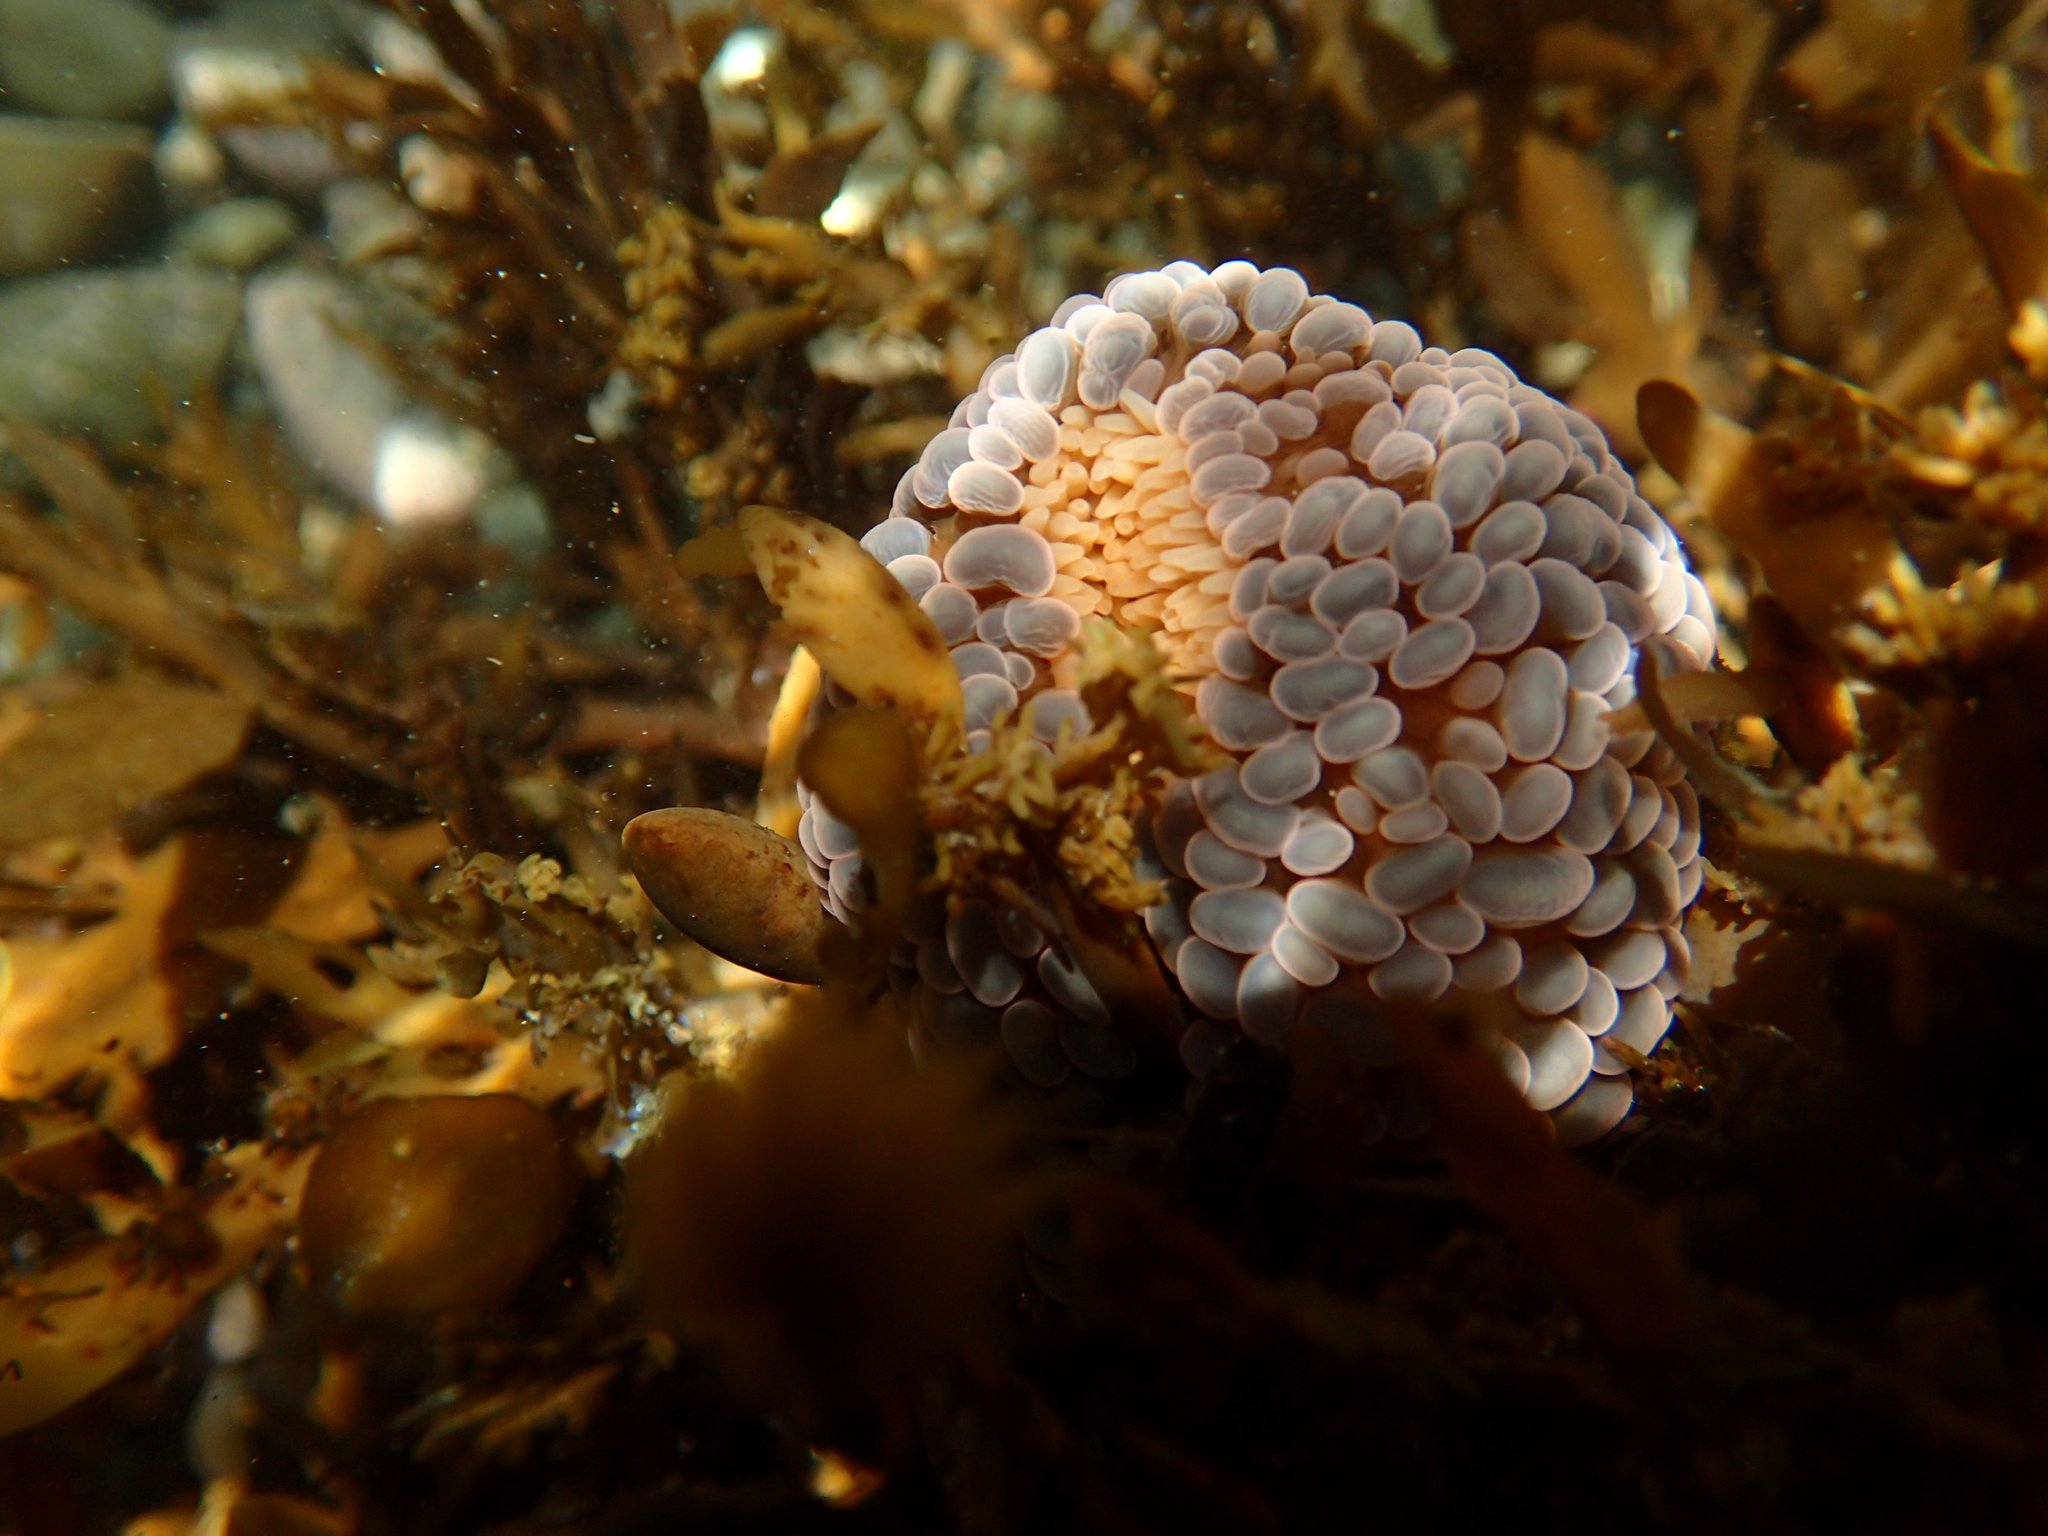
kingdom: Animalia
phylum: Cnidaria
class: Anthozoa
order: Actiniaria
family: Actiniidae
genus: Phlyctenactis
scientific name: Phlyctenactis tuberculosa
